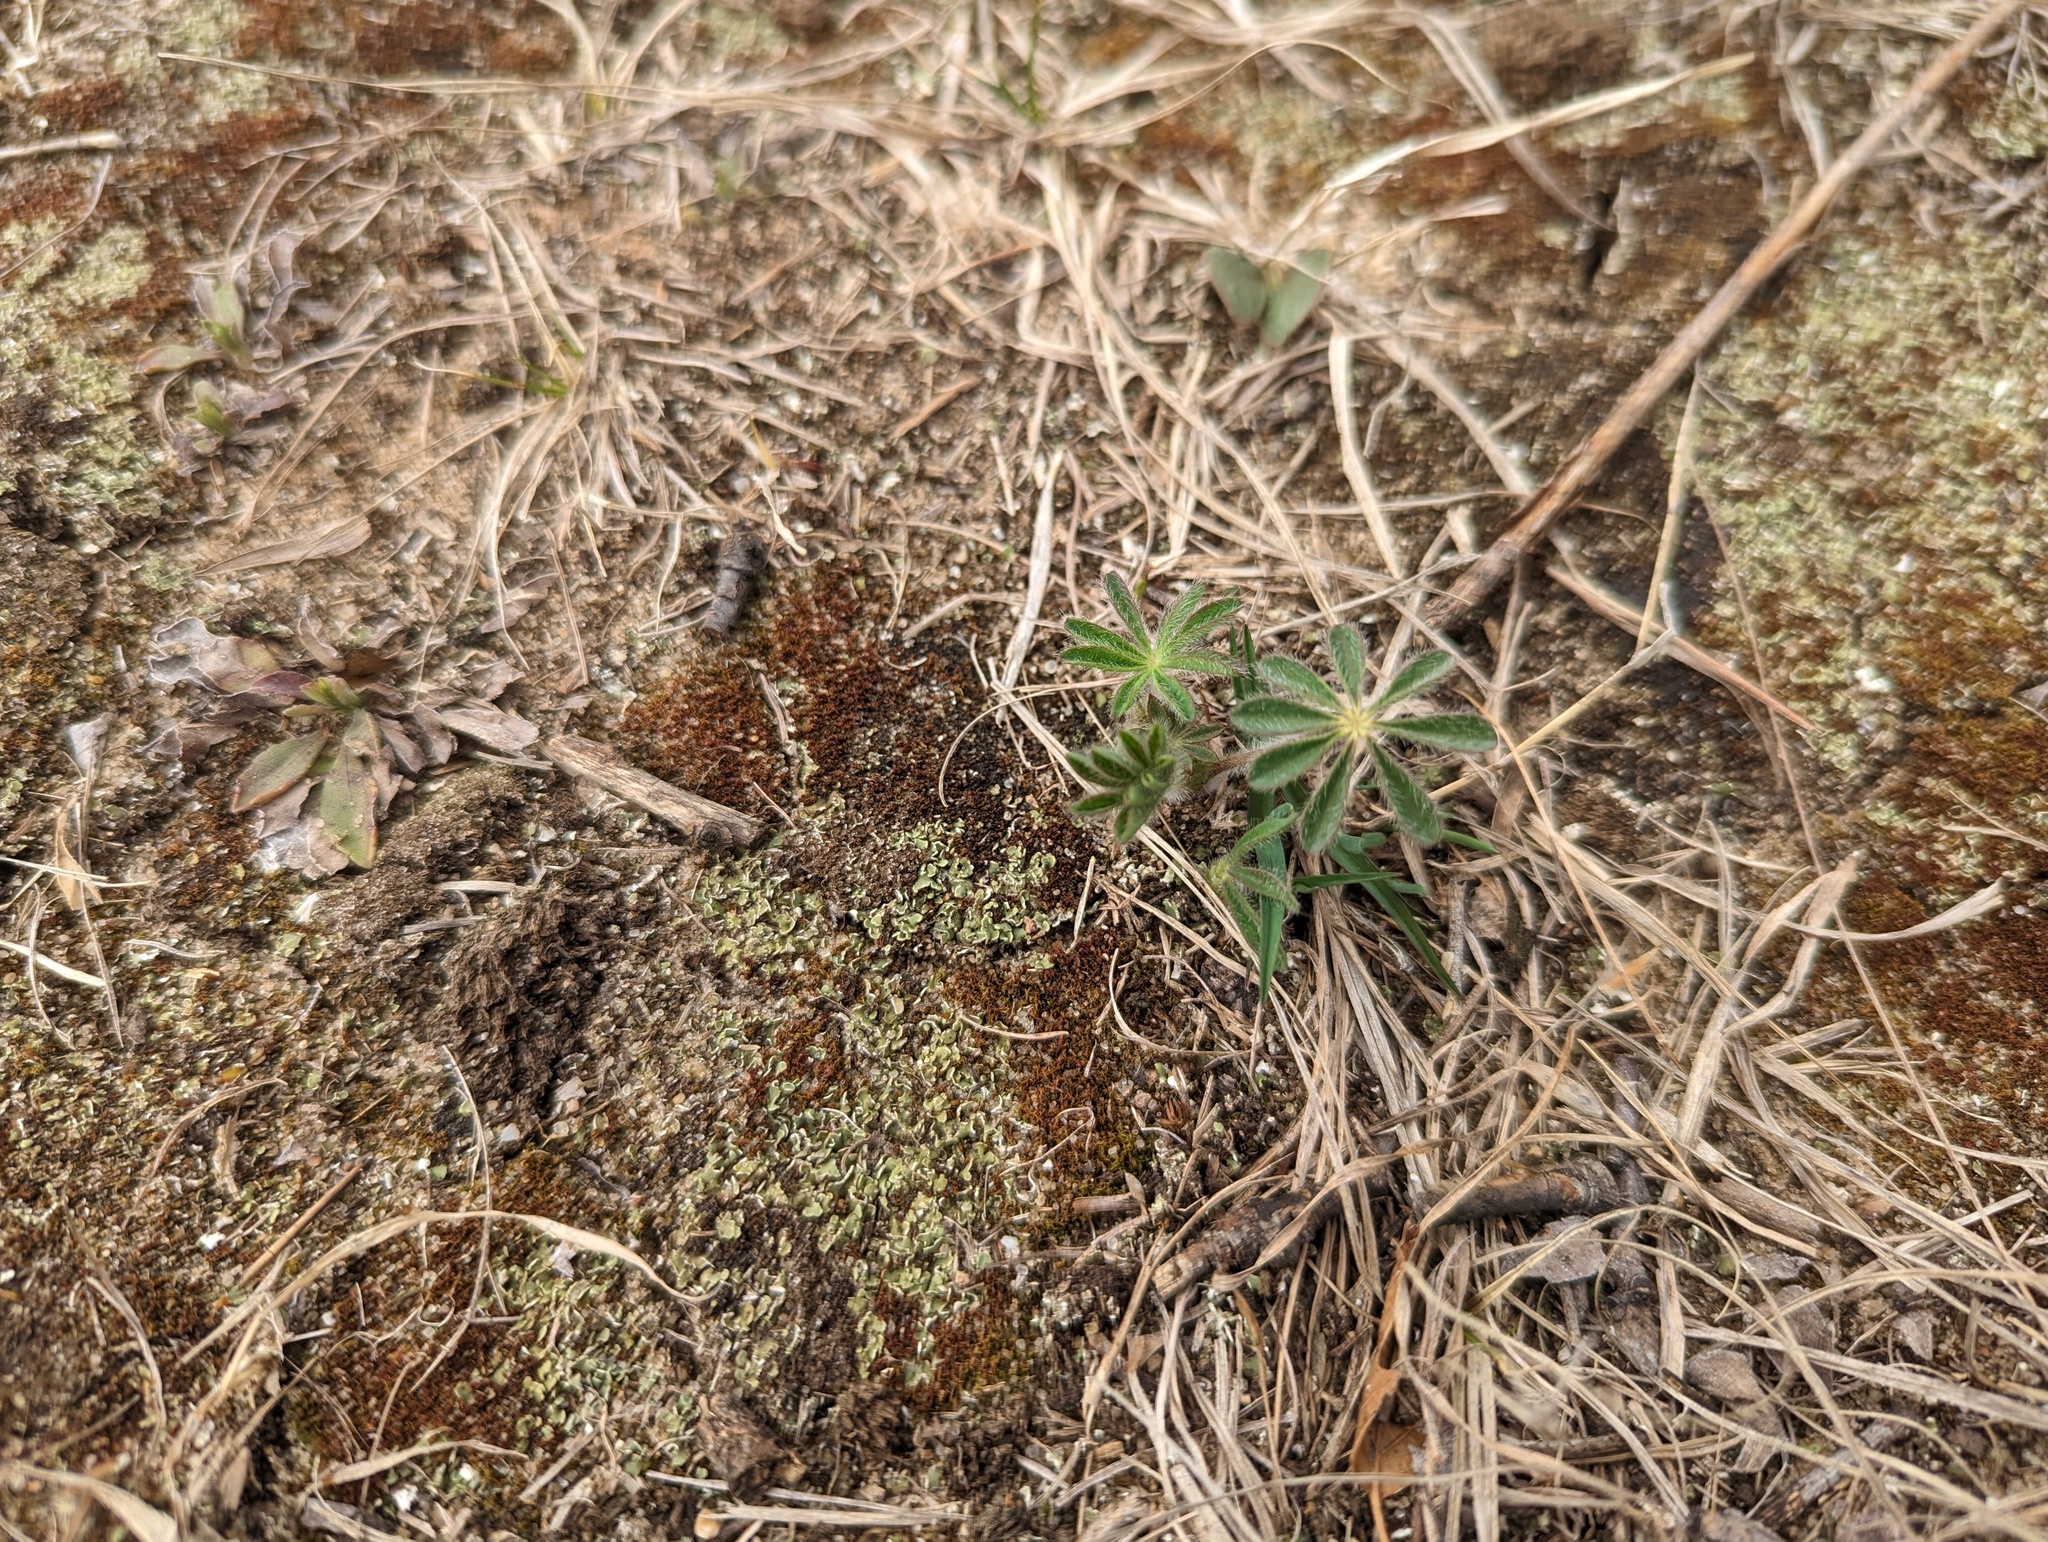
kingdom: Plantae
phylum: Tracheophyta
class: Magnoliopsida
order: Fabales
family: Fabaceae
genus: Lupinus
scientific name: Lupinus perennis
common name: Sundial lupine
